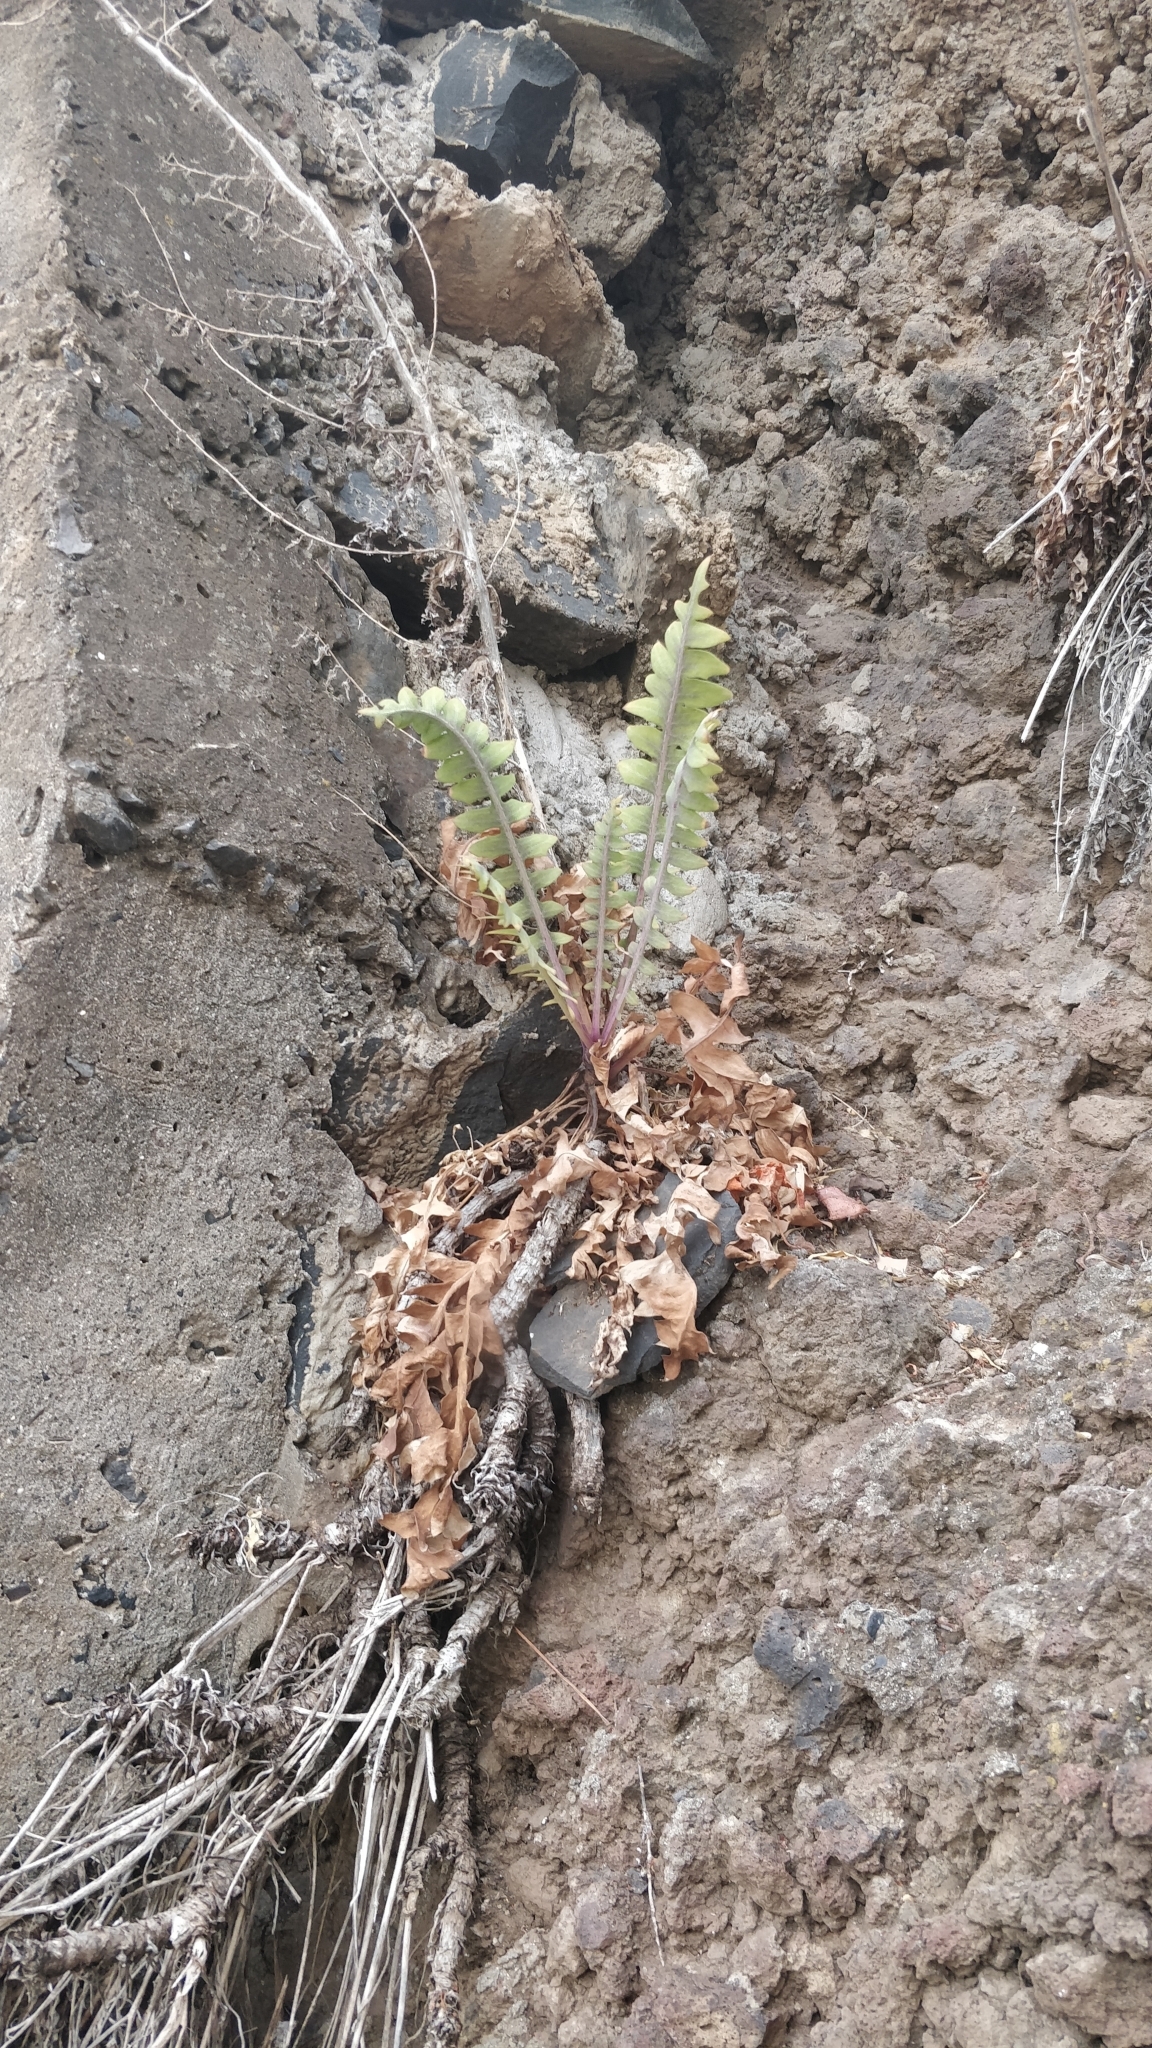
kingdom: Plantae
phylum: Tracheophyta
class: Magnoliopsida
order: Asterales
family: Asteraceae
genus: Sonchus
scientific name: Sonchus ustulatus
